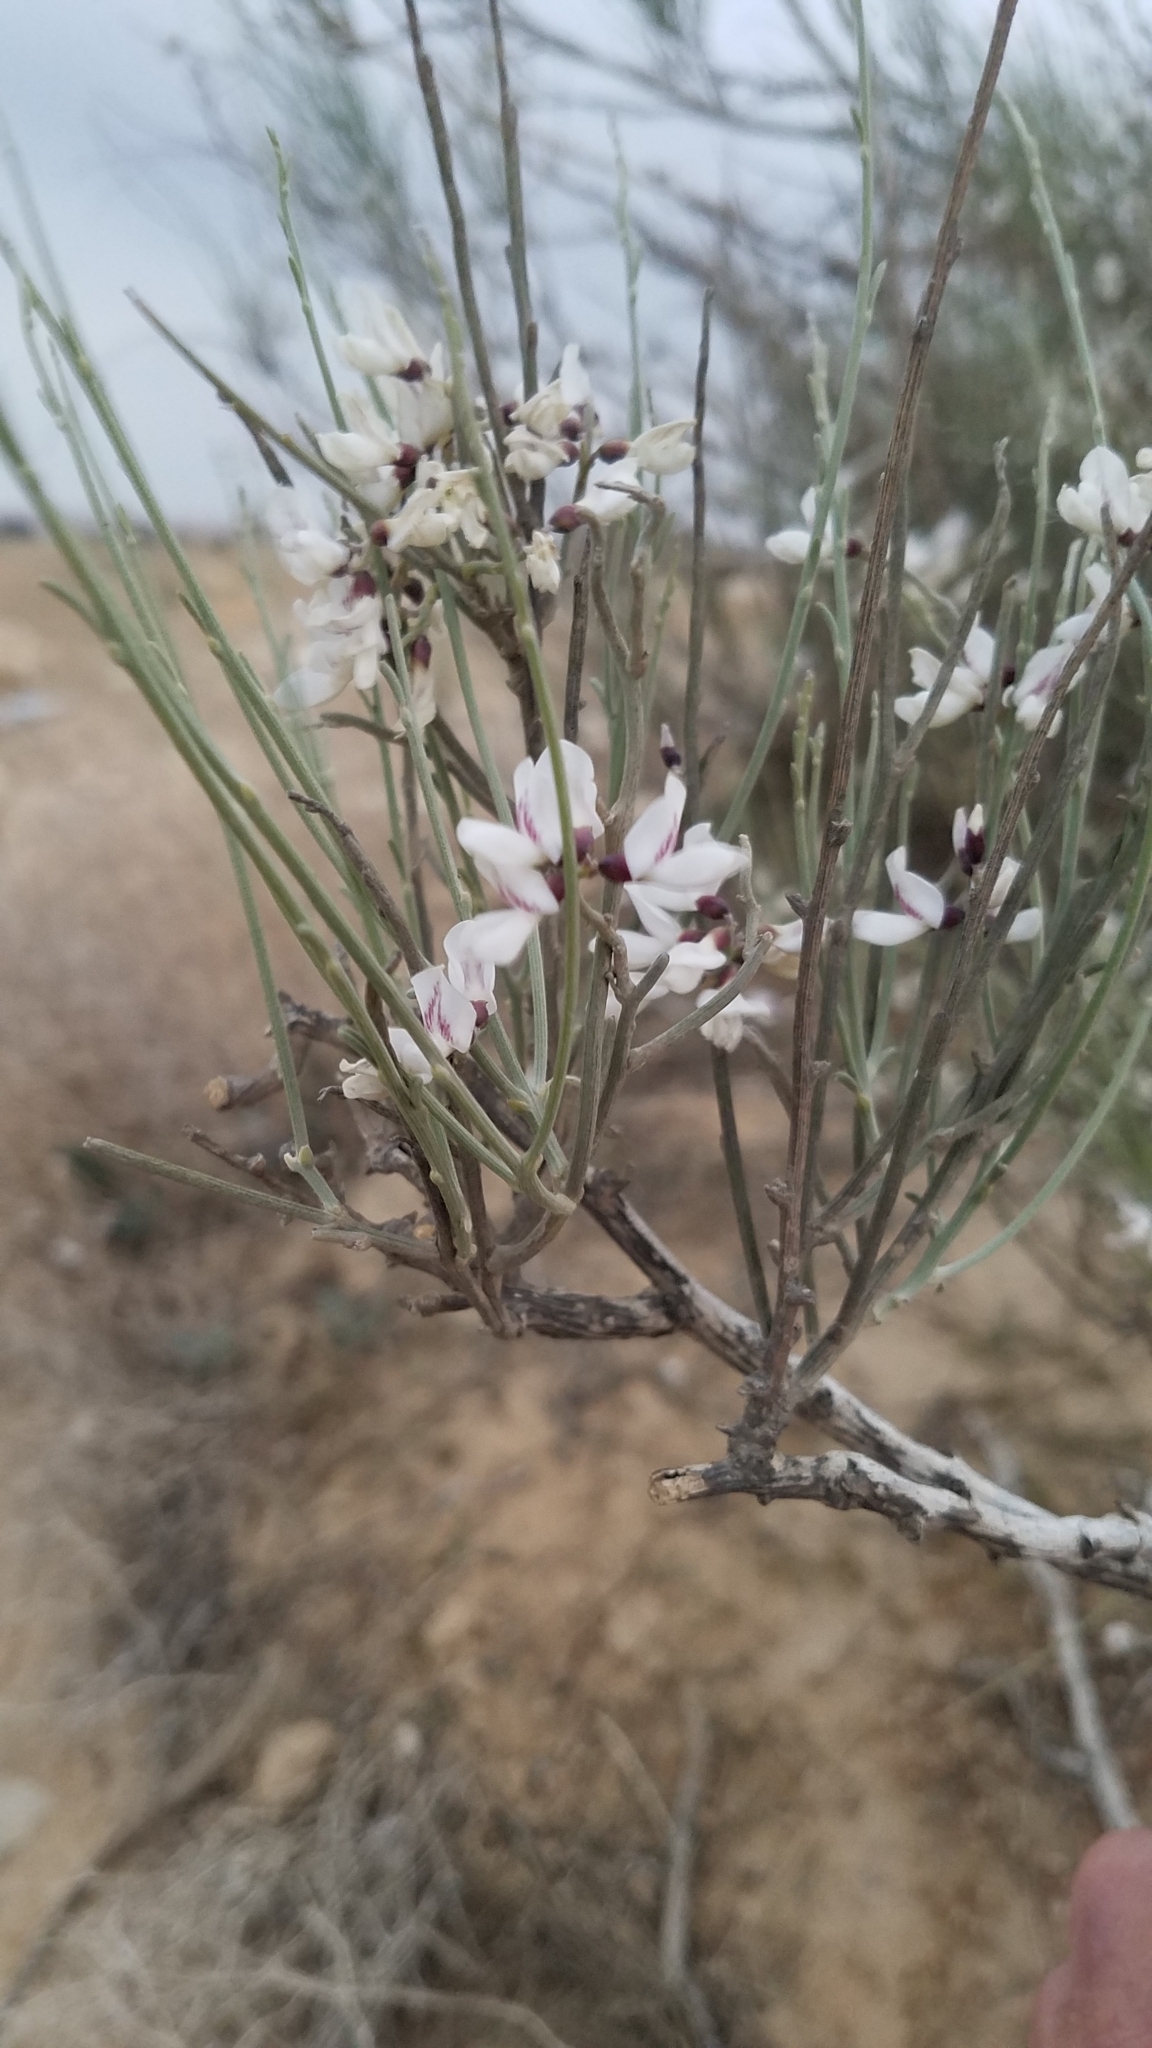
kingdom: Plantae
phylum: Tracheophyta
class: Magnoliopsida
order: Fabales
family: Fabaceae
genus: Retama
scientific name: Retama raetam
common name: Retem
